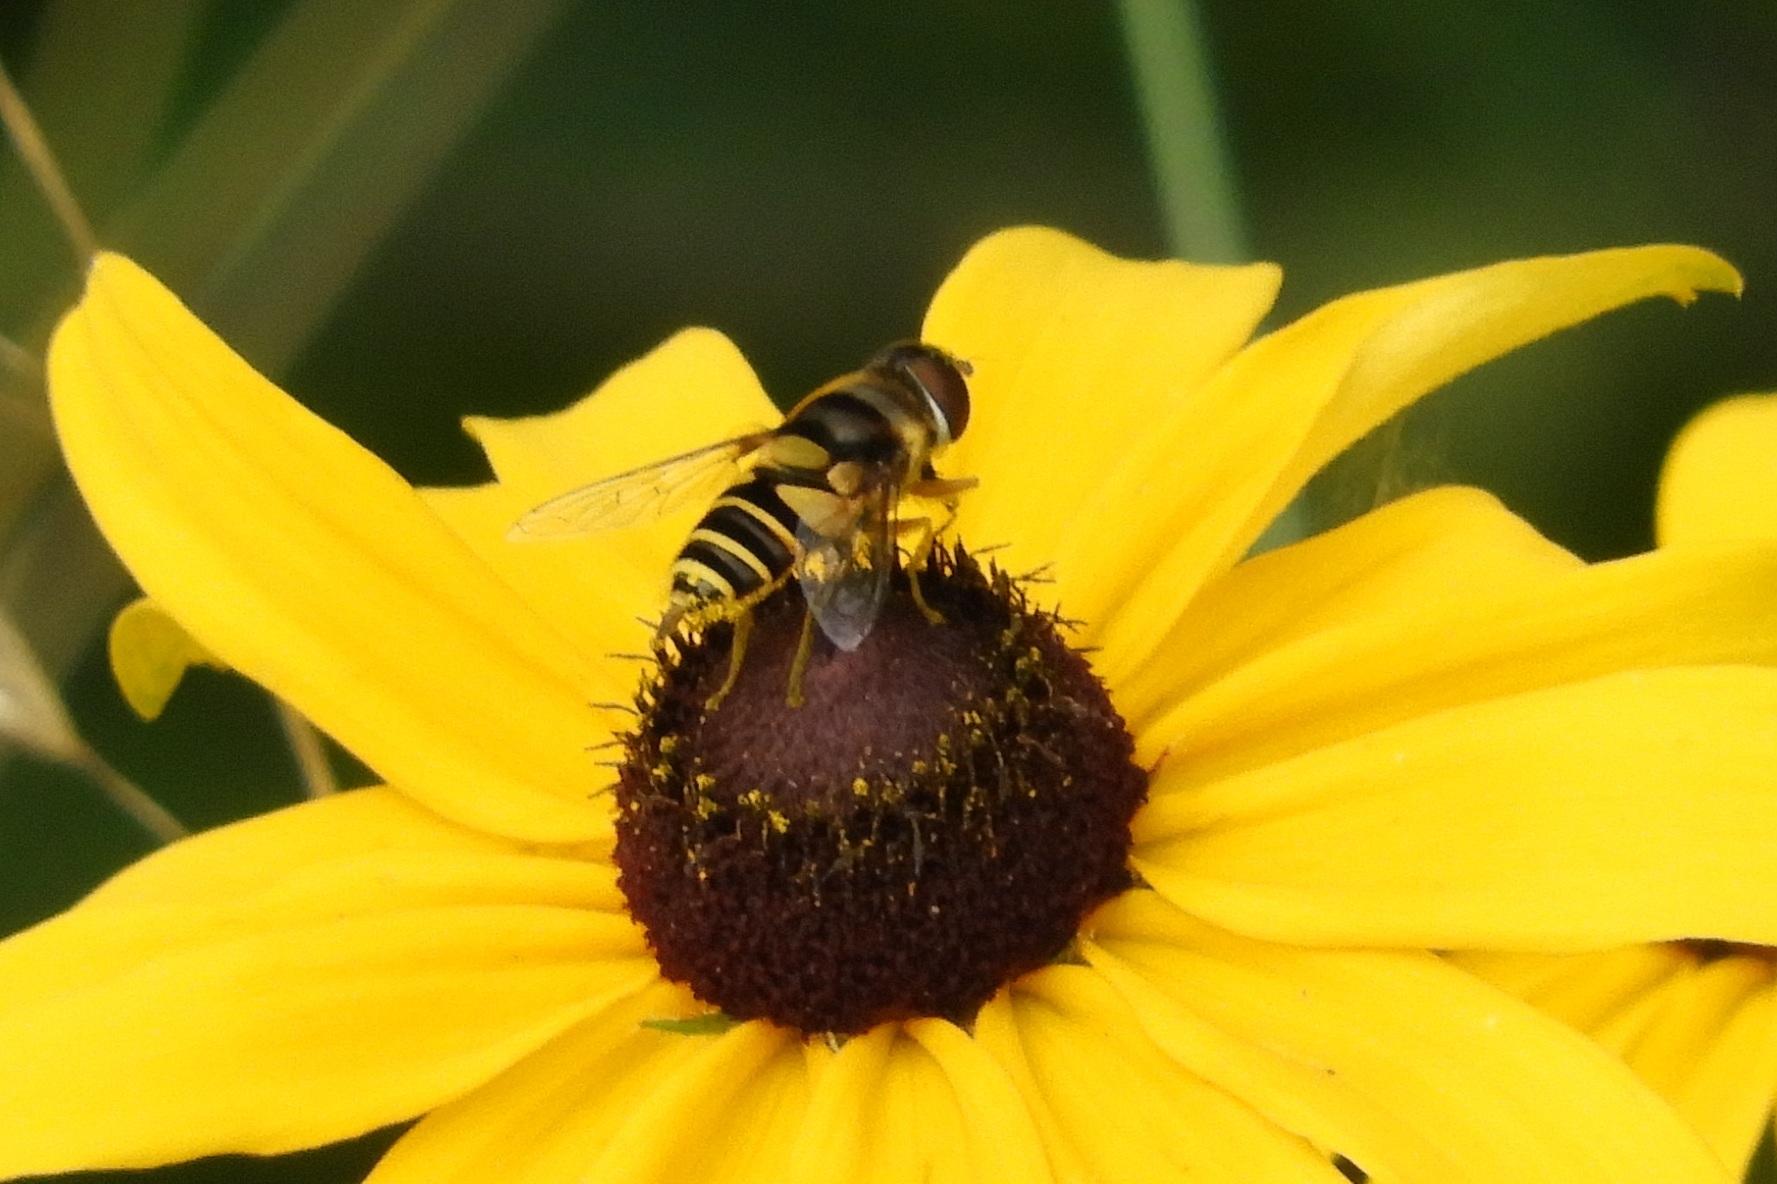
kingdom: Animalia
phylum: Arthropoda
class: Insecta
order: Diptera
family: Syrphidae
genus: Eristalis
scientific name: Eristalis transversa
